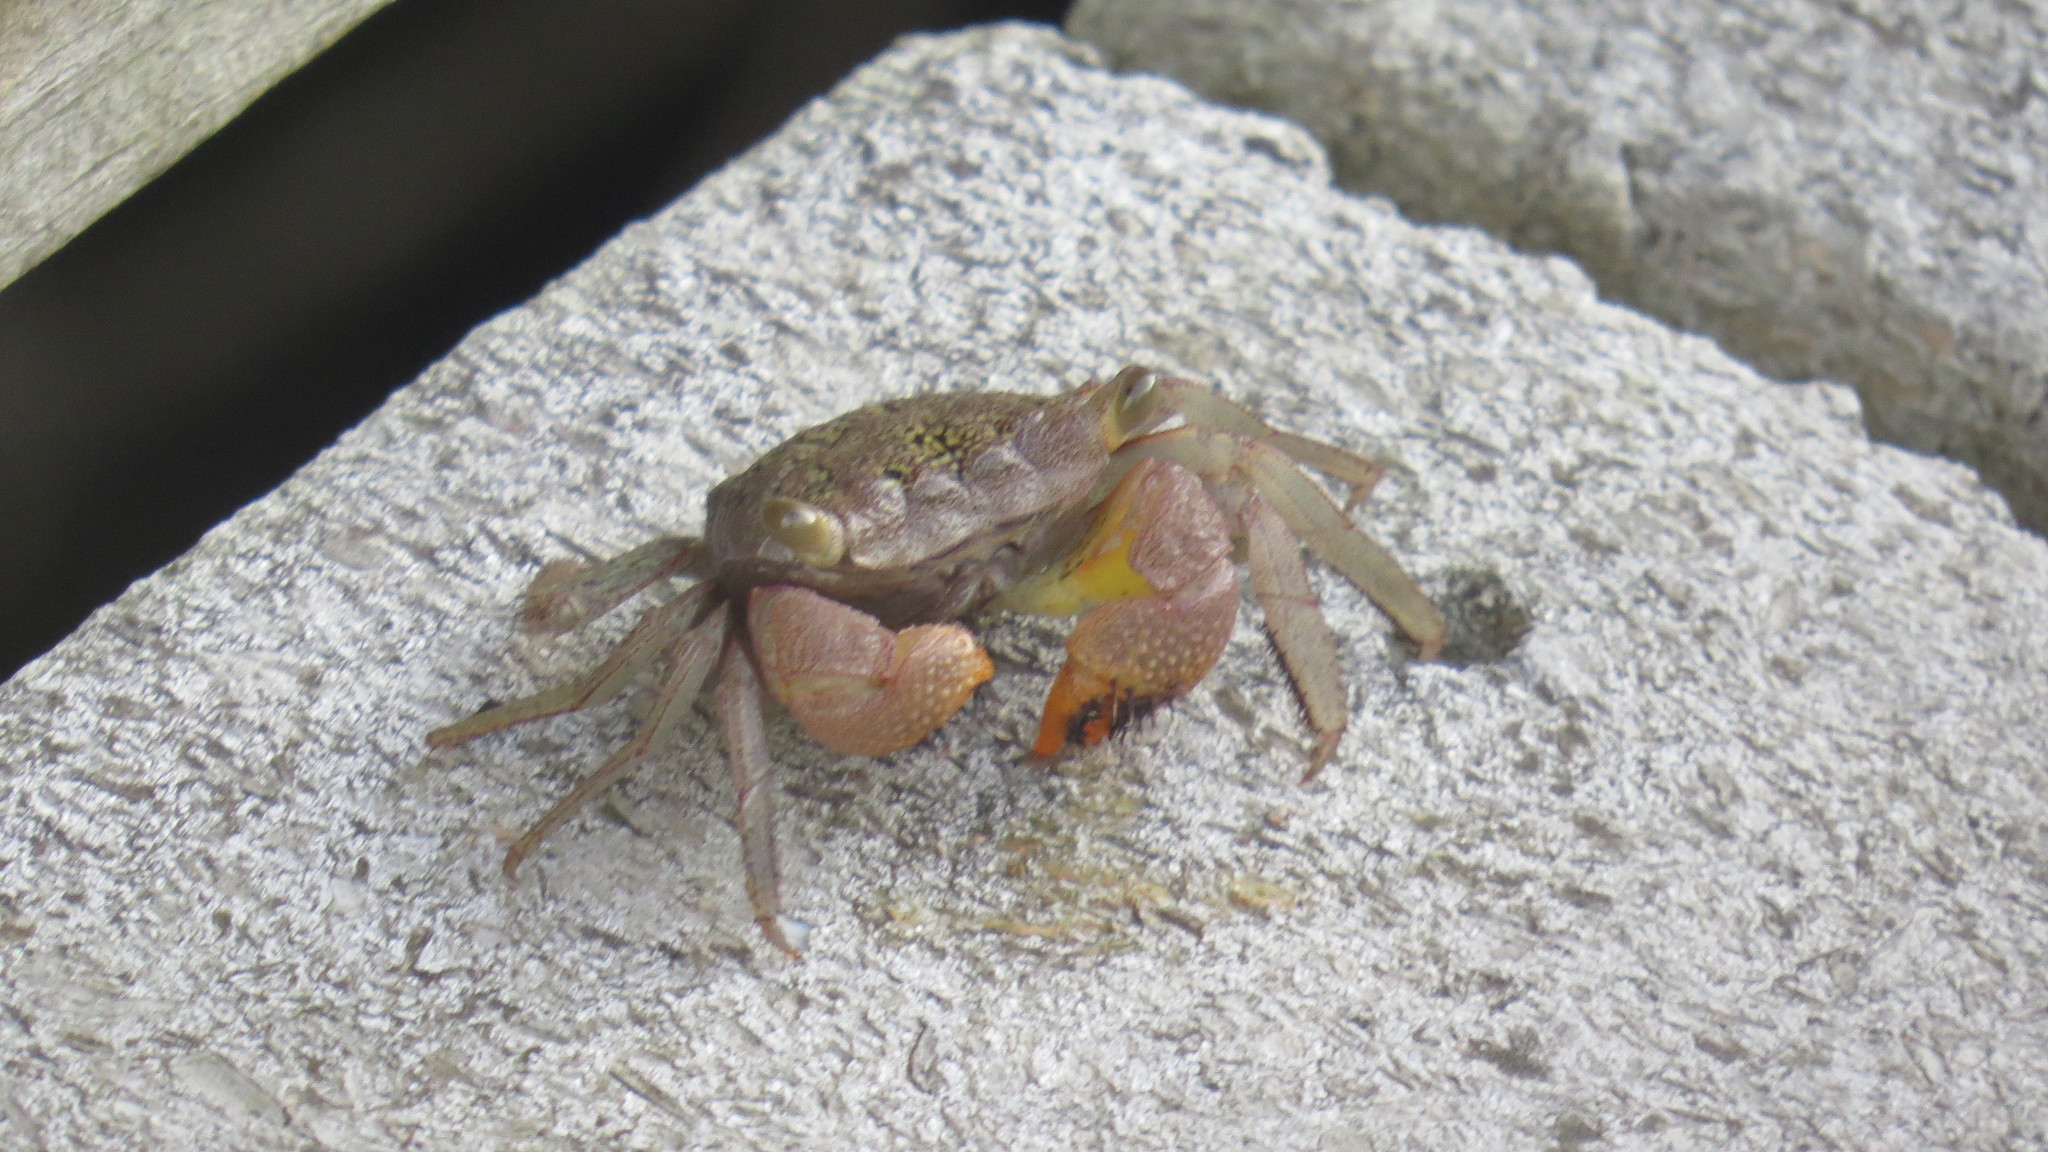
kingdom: Animalia
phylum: Arthropoda
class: Malacostraca
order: Decapoda
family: Sesarmidae
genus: Aratus
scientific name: Aratus pisonii
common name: Mangrove crab
